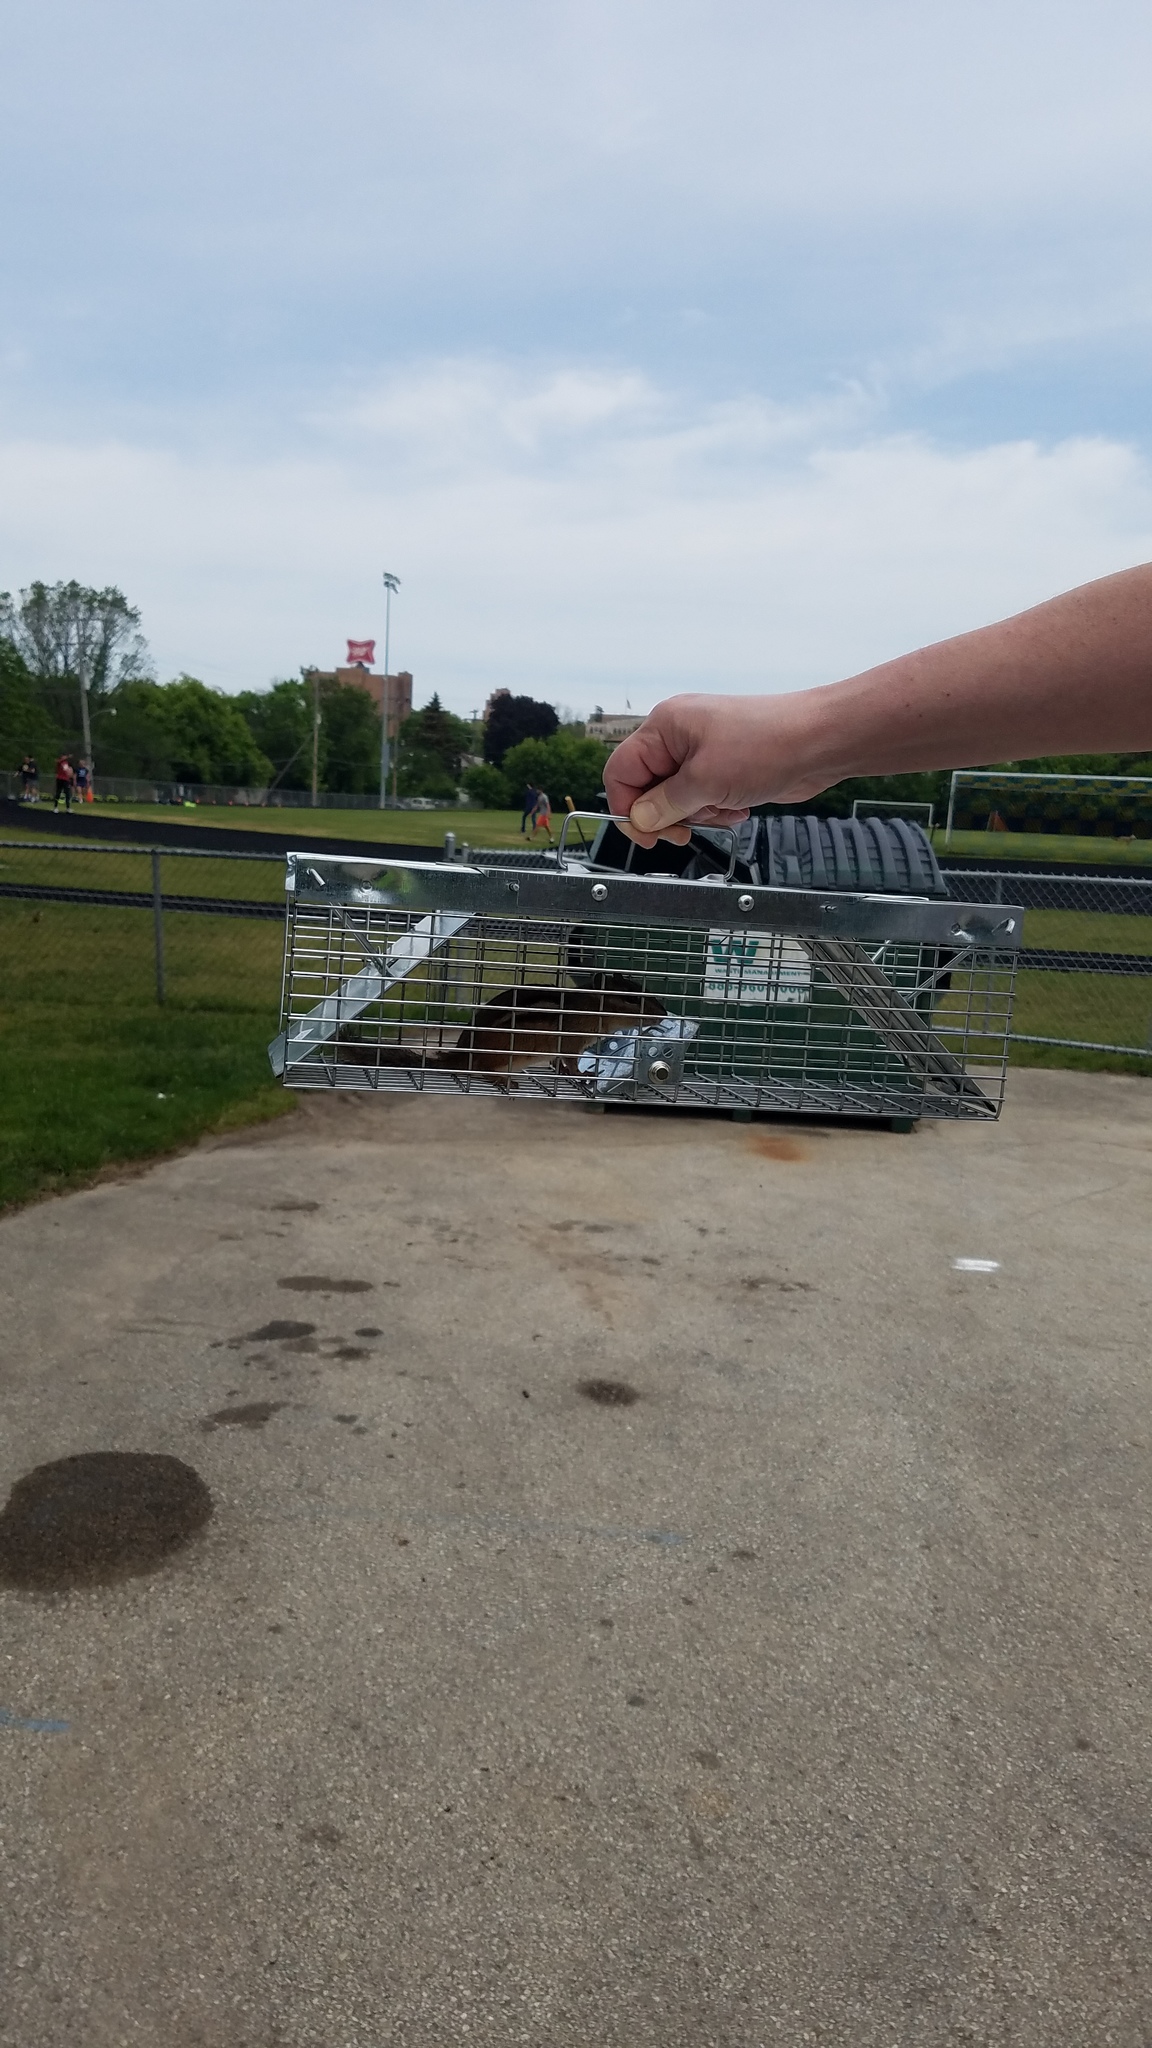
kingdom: Animalia
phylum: Chordata
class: Mammalia
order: Rodentia
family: Sciuridae
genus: Tamias
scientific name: Tamias striatus
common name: Eastern chipmunk
